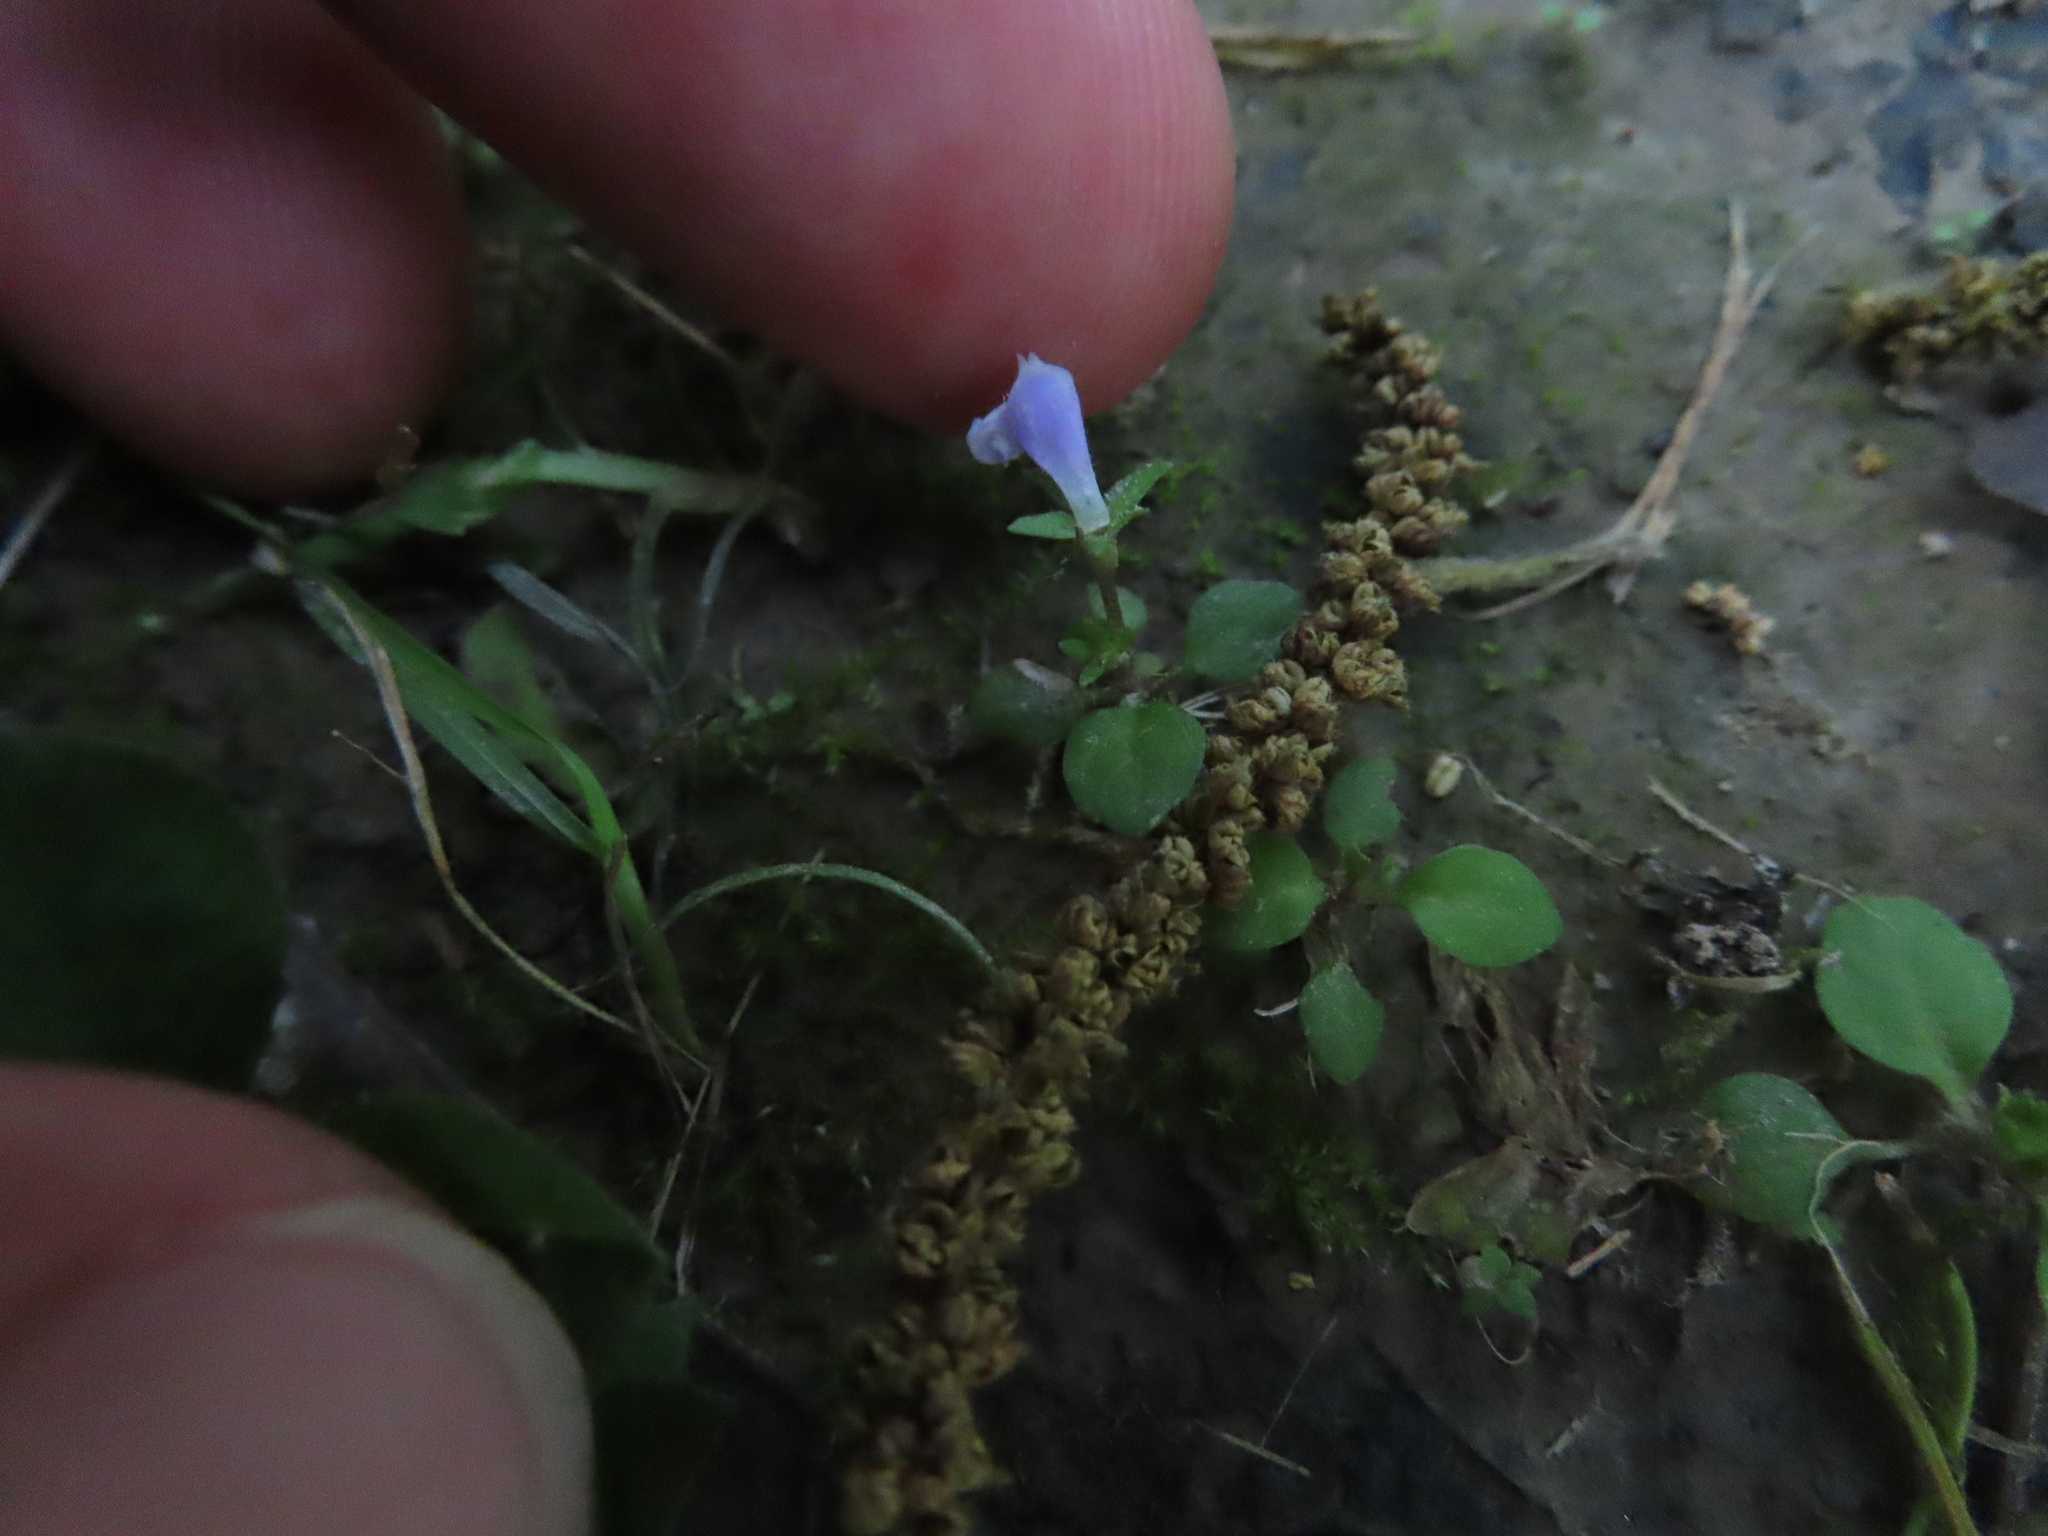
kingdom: Plantae
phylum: Tracheophyta
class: Magnoliopsida
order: Lamiales
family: Mazaceae
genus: Mazus
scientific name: Mazus pumilus
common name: Japanese mazus
